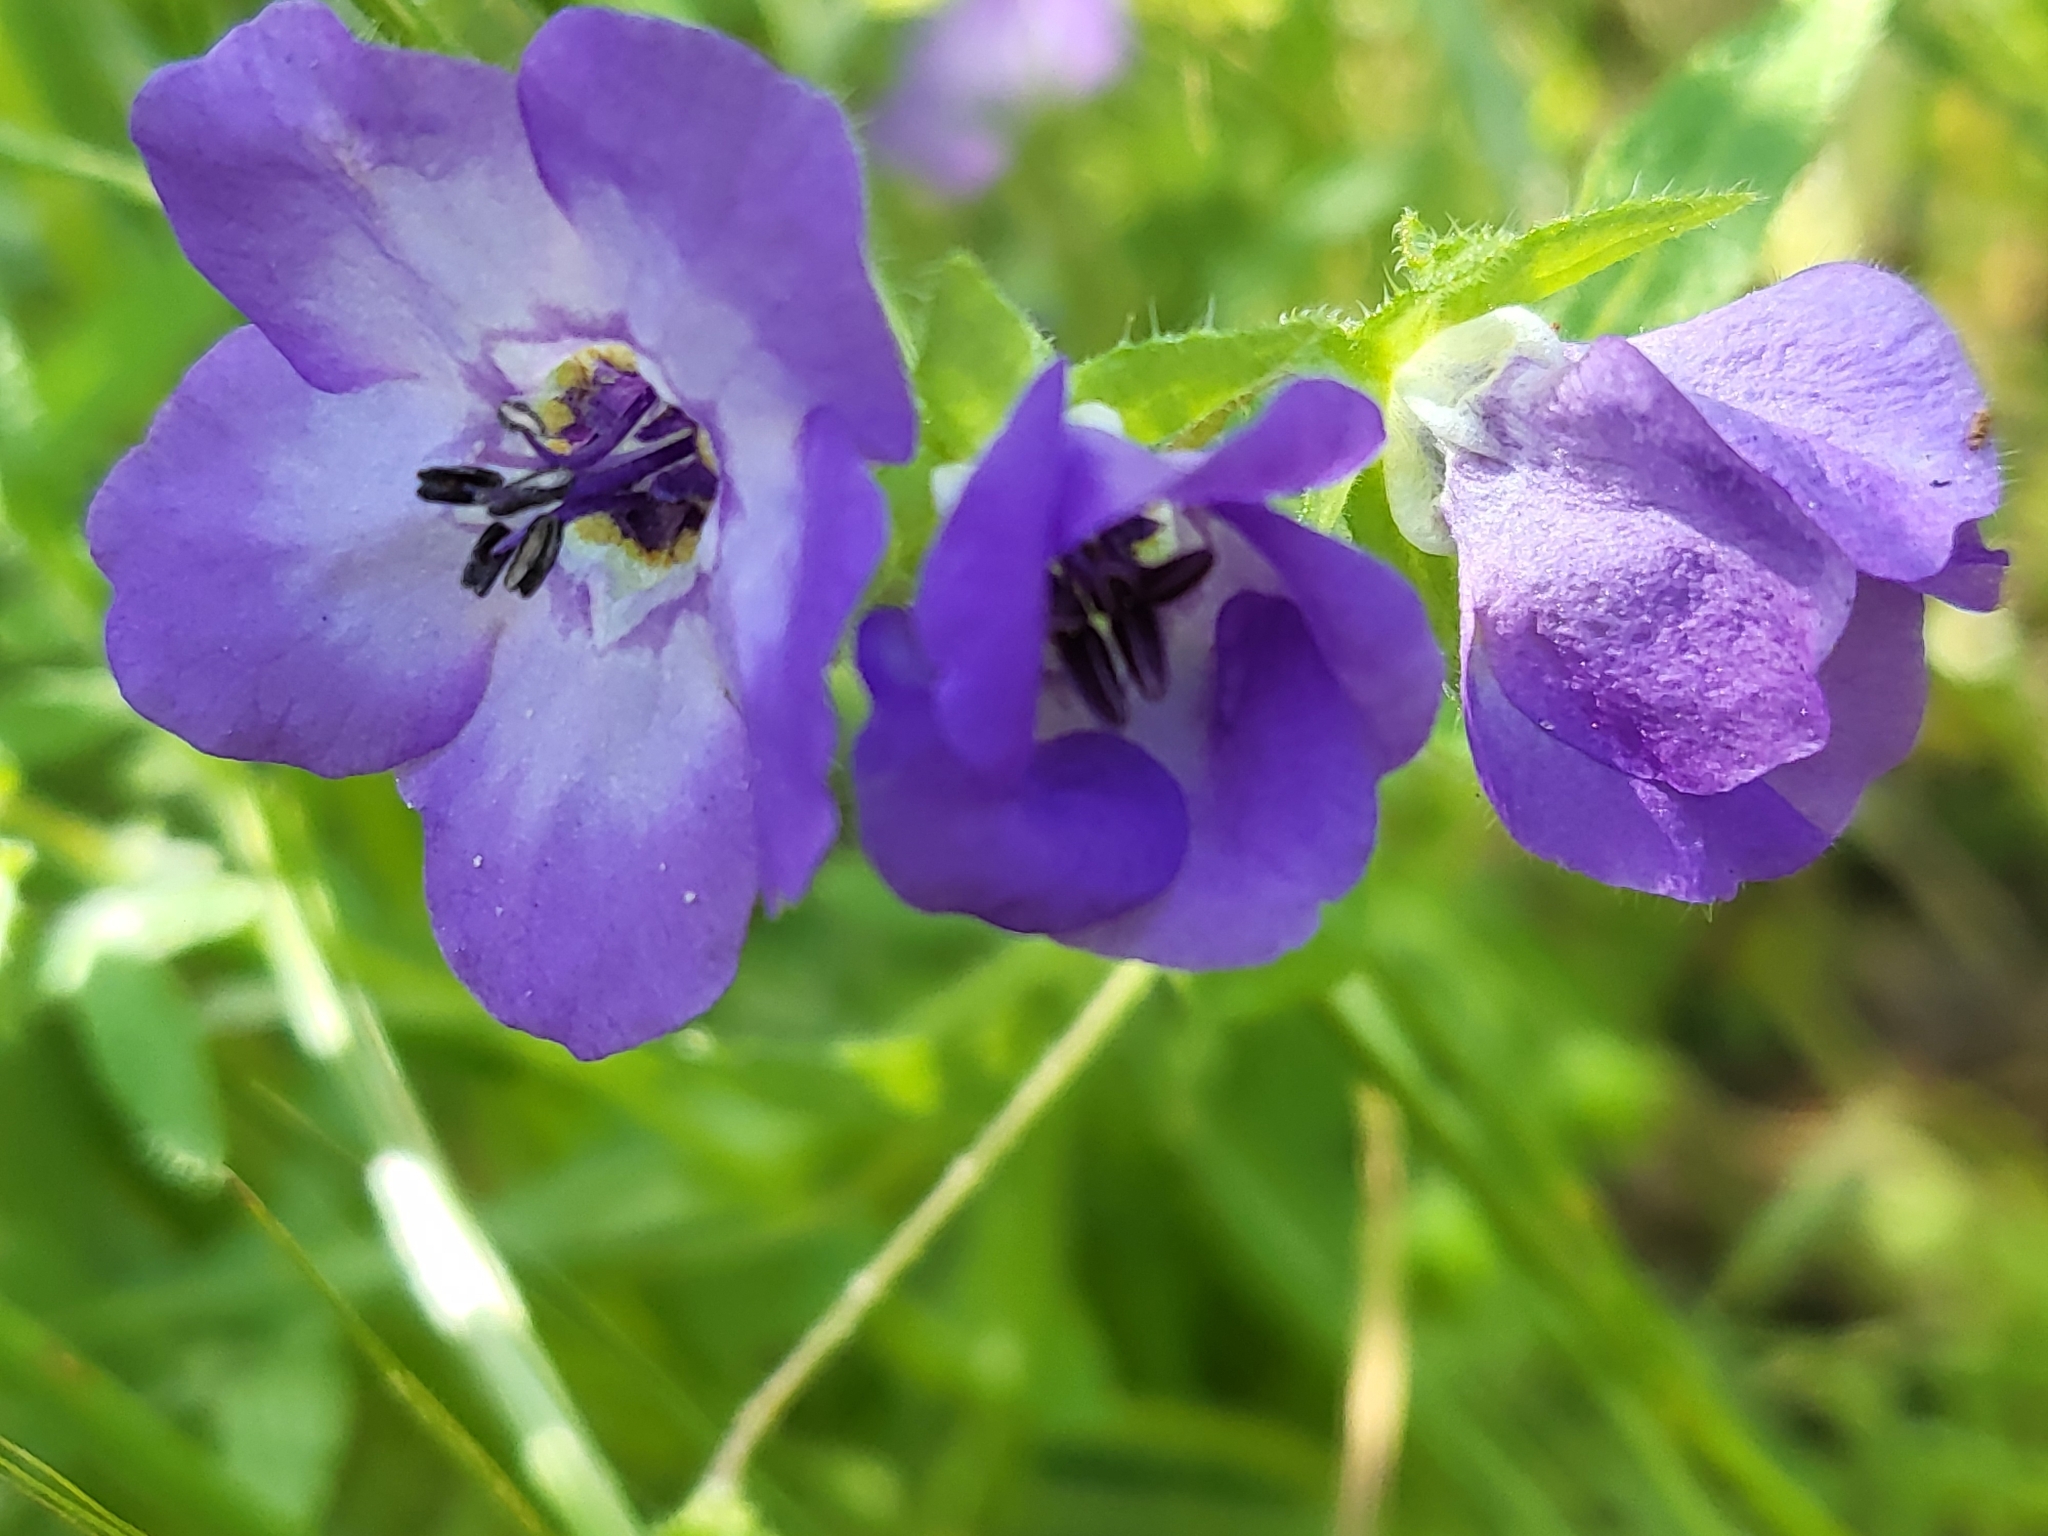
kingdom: Plantae
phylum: Tracheophyta
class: Magnoliopsida
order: Boraginales
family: Hydrophyllaceae
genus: Pholistoma
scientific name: Pholistoma auritum
